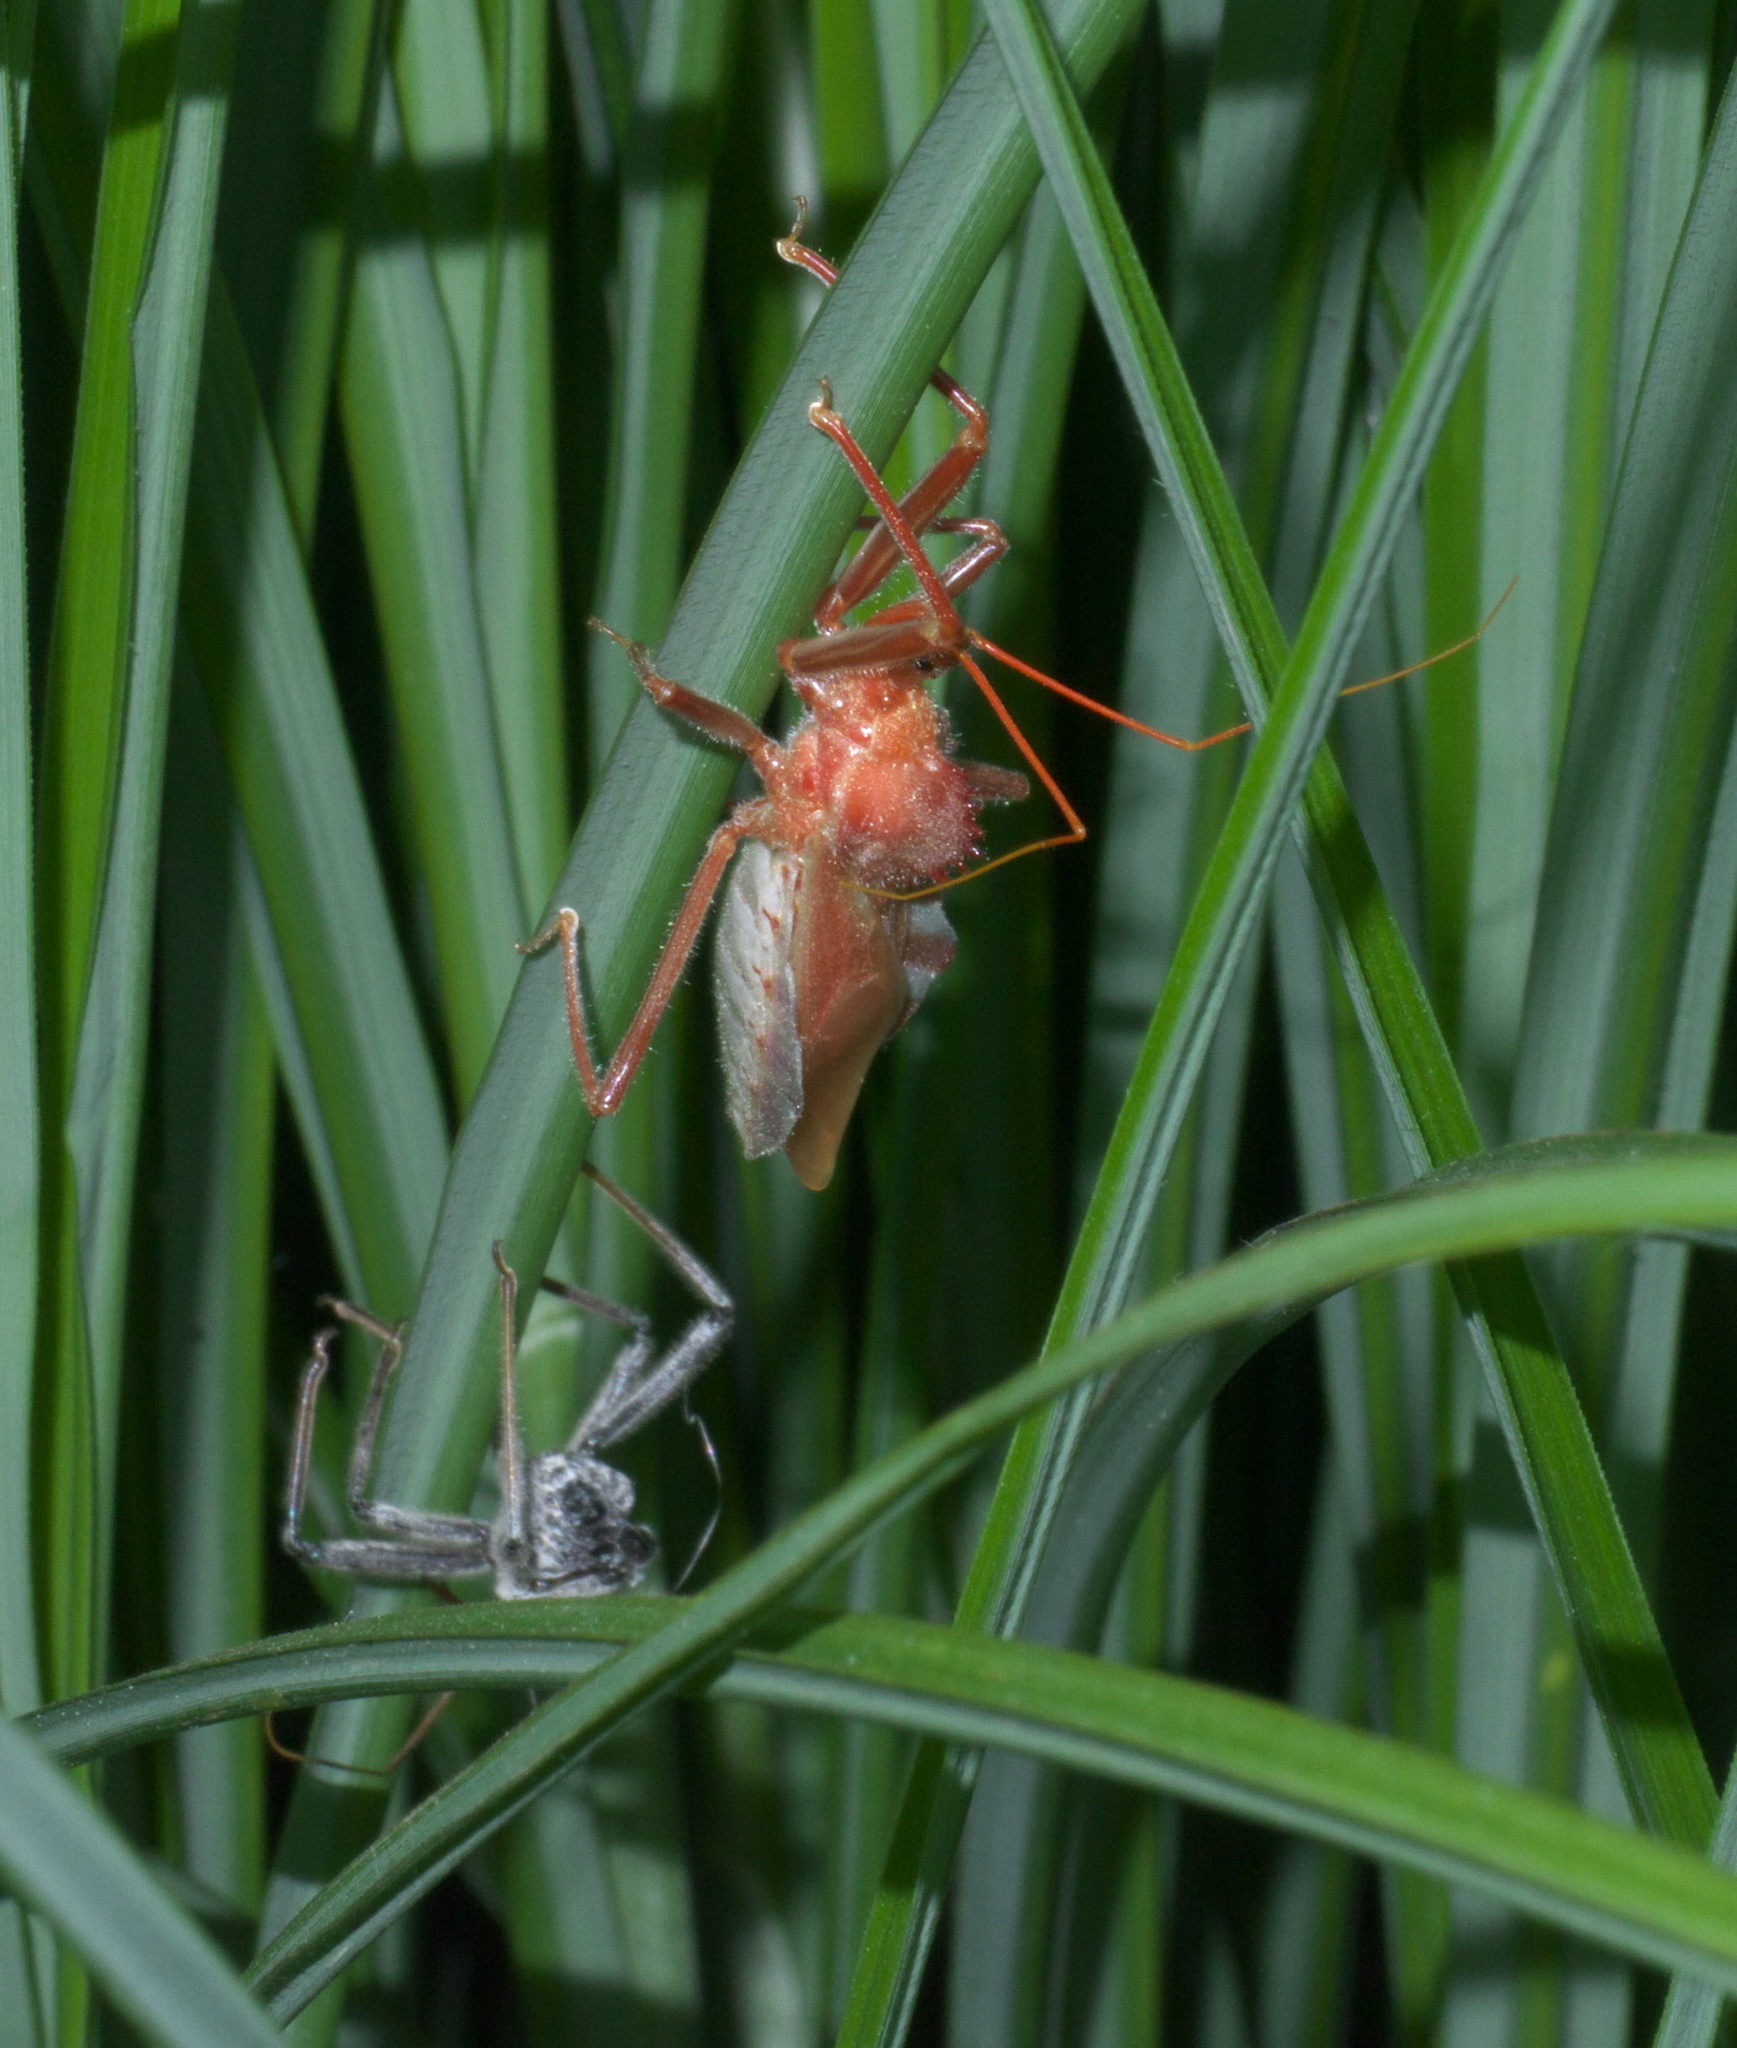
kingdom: Animalia
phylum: Arthropoda
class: Insecta
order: Hemiptera
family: Reduviidae
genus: Arilus
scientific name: Arilus cristatus
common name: North american wheel bug
